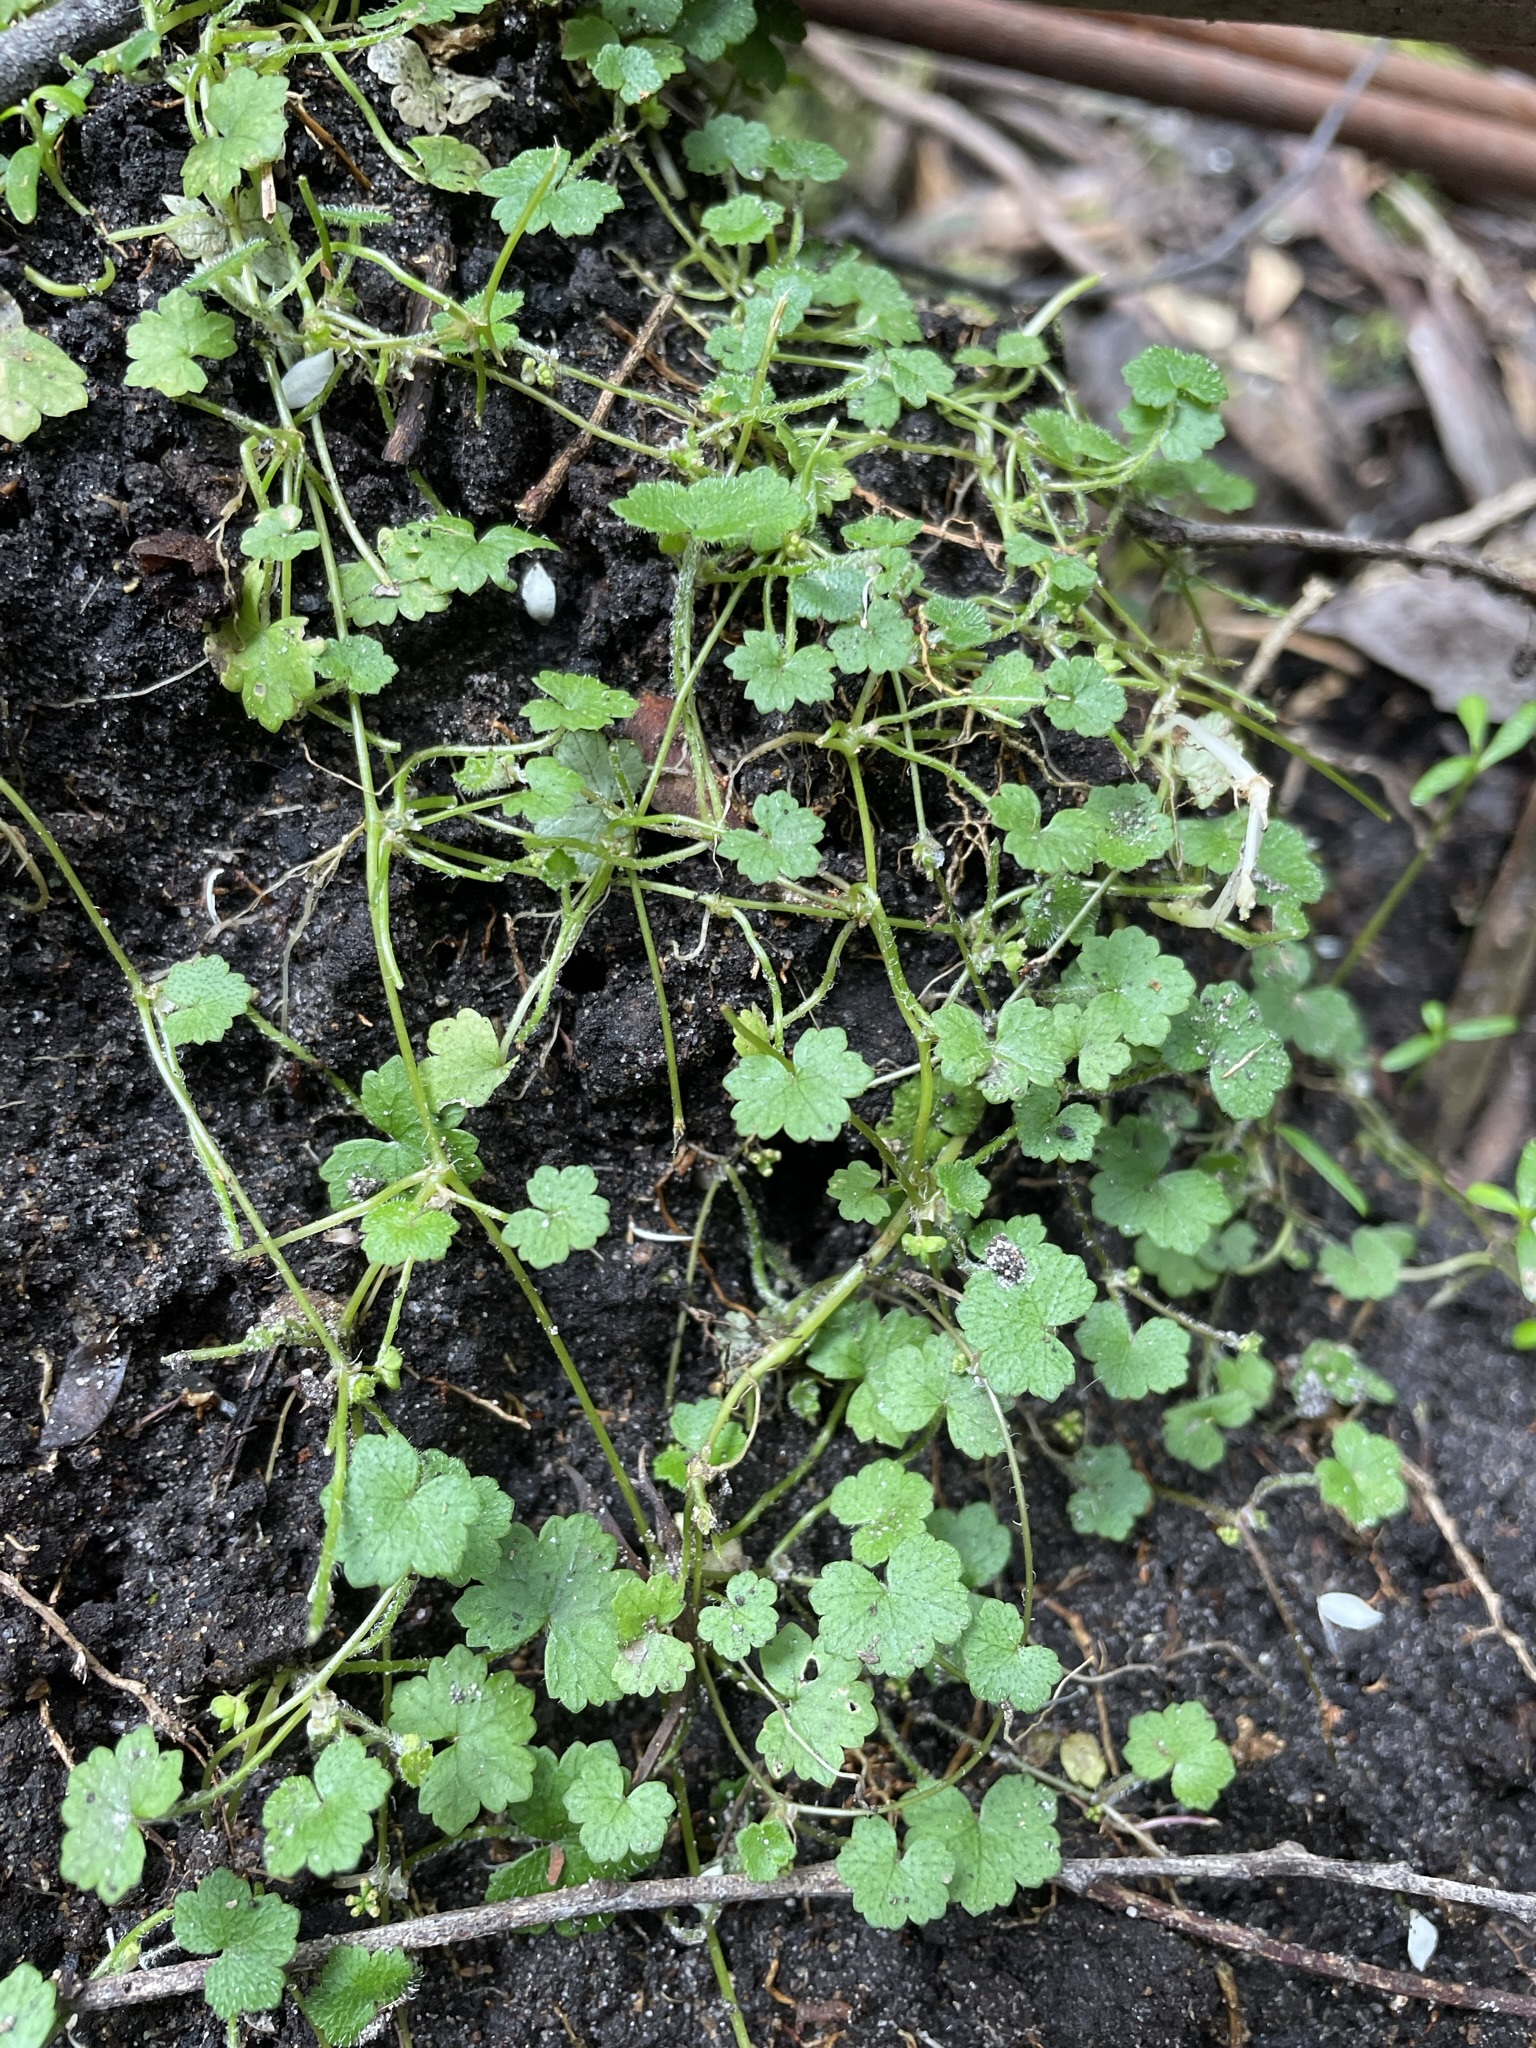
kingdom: Plantae
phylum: Tracheophyta
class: Magnoliopsida
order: Apiales
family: Araliaceae
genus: Hydrocotyle
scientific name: Hydrocotyle hirta
